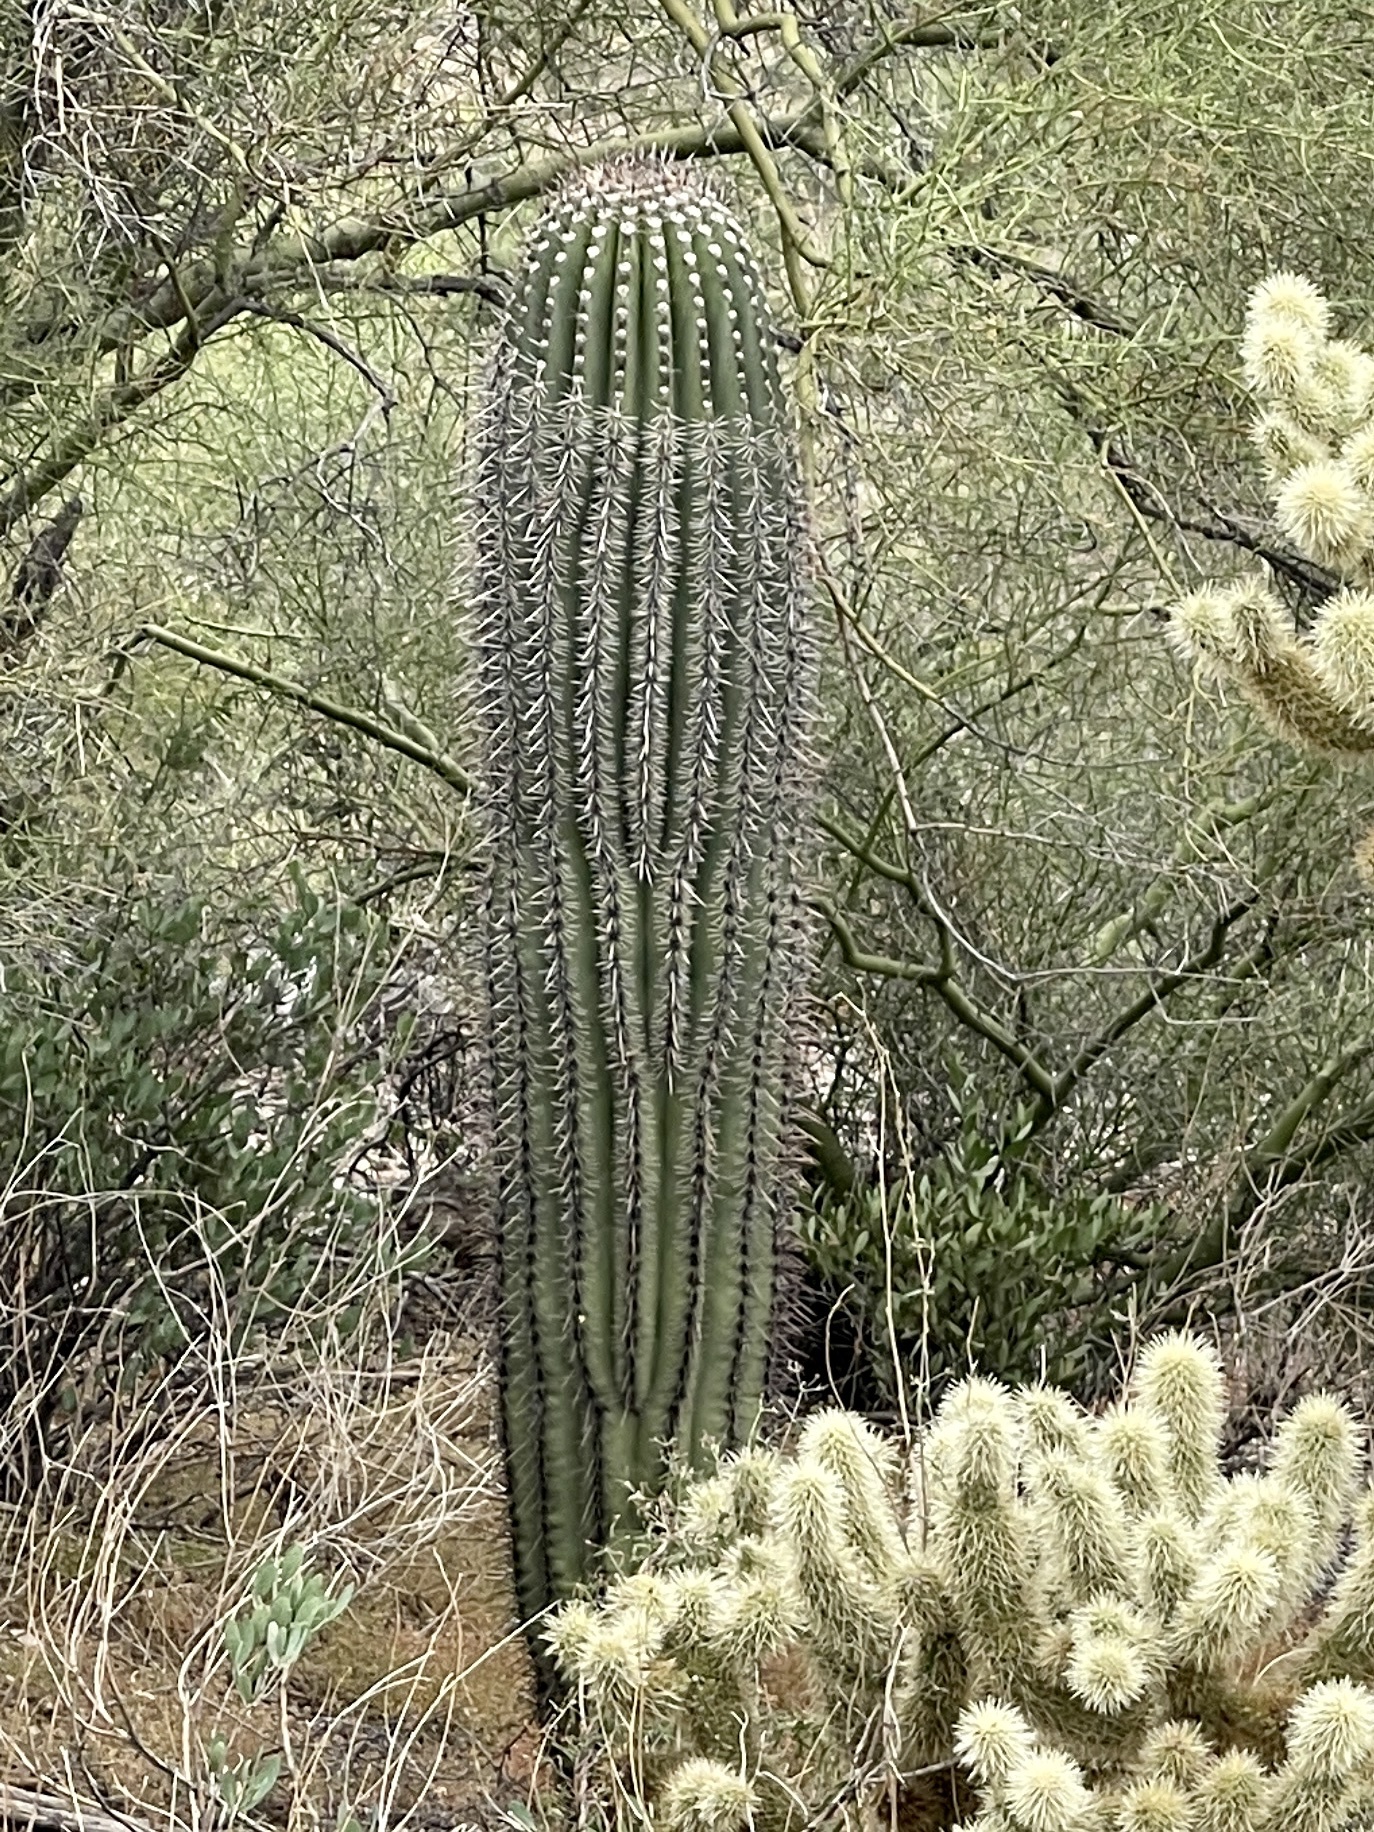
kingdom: Plantae
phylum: Tracheophyta
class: Magnoliopsida
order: Caryophyllales
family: Cactaceae
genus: Carnegiea
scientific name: Carnegiea gigantea
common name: Saguaro
